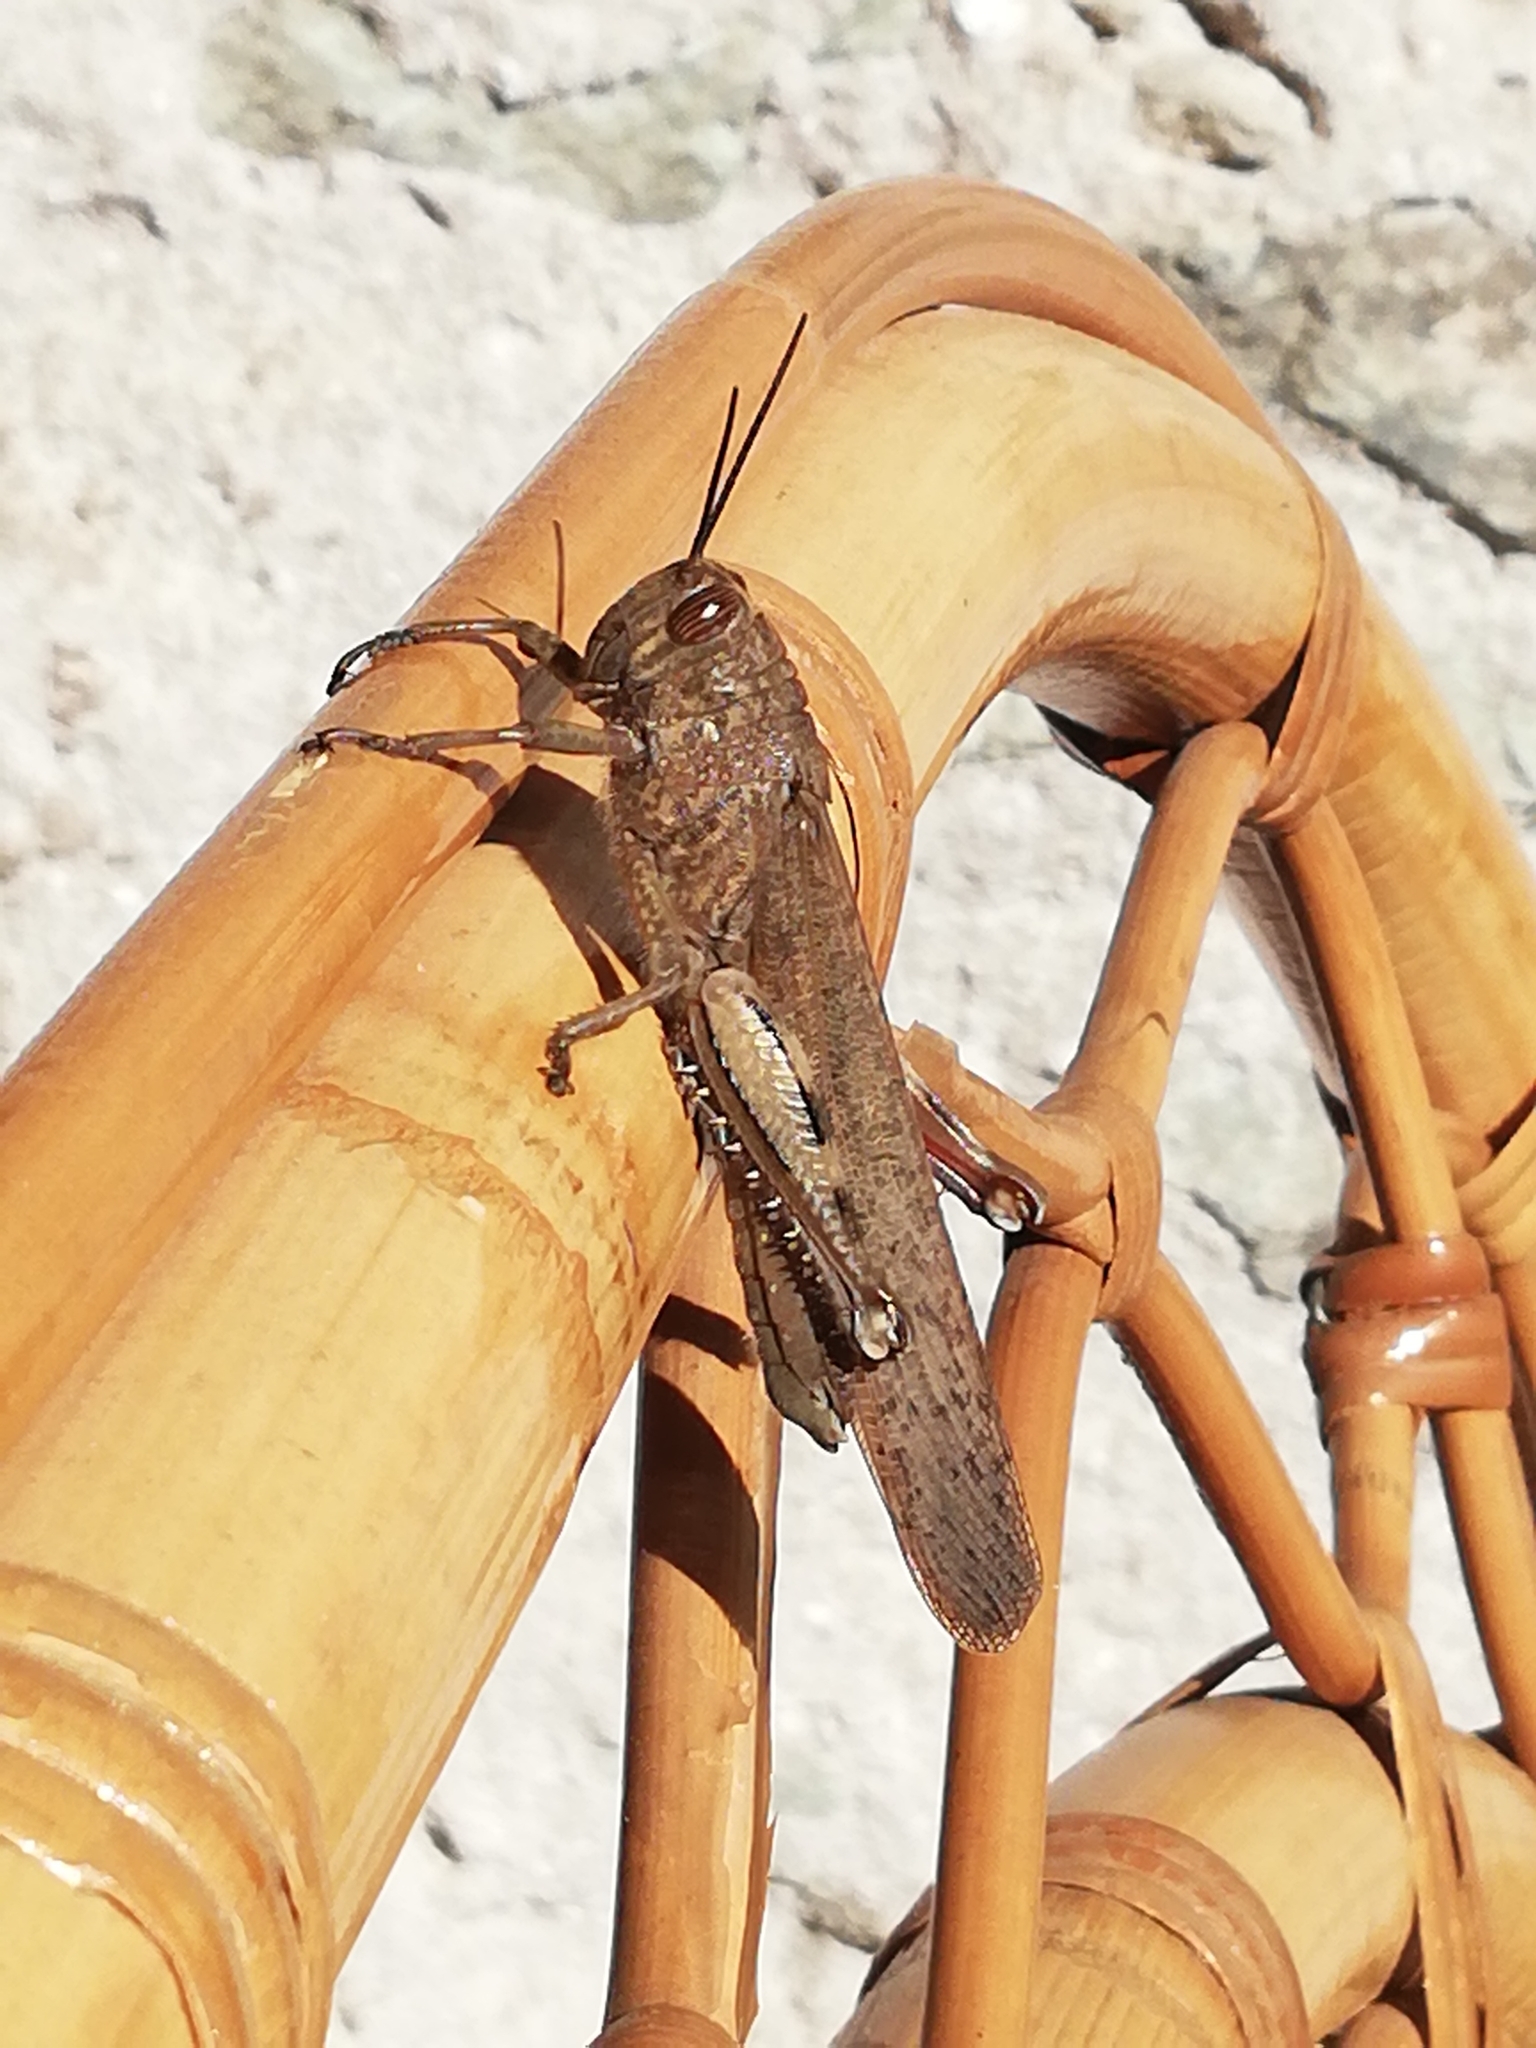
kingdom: Animalia
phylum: Arthropoda
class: Insecta
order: Orthoptera
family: Acrididae
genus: Anacridium
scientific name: Anacridium aegyptium
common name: Egyptian grasshopper
